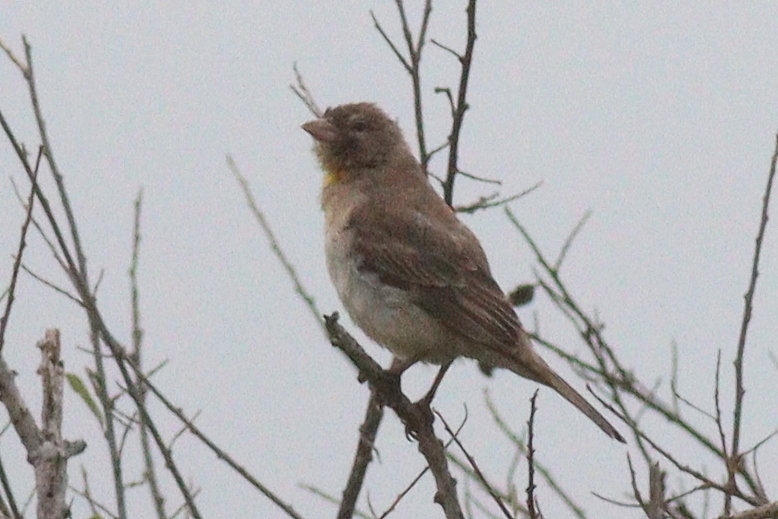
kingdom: Animalia
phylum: Chordata
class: Aves
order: Passeriformes
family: Passeridae
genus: Gymnoris
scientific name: Gymnoris pyrgita
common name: Yellow-spotted petronia
